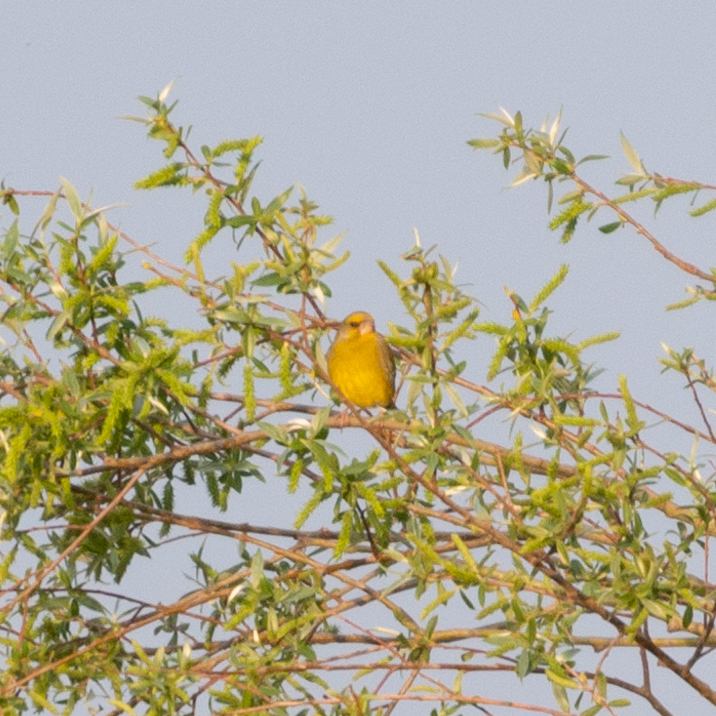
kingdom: Plantae
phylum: Tracheophyta
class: Liliopsida
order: Poales
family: Poaceae
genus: Chloris
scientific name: Chloris chloris
